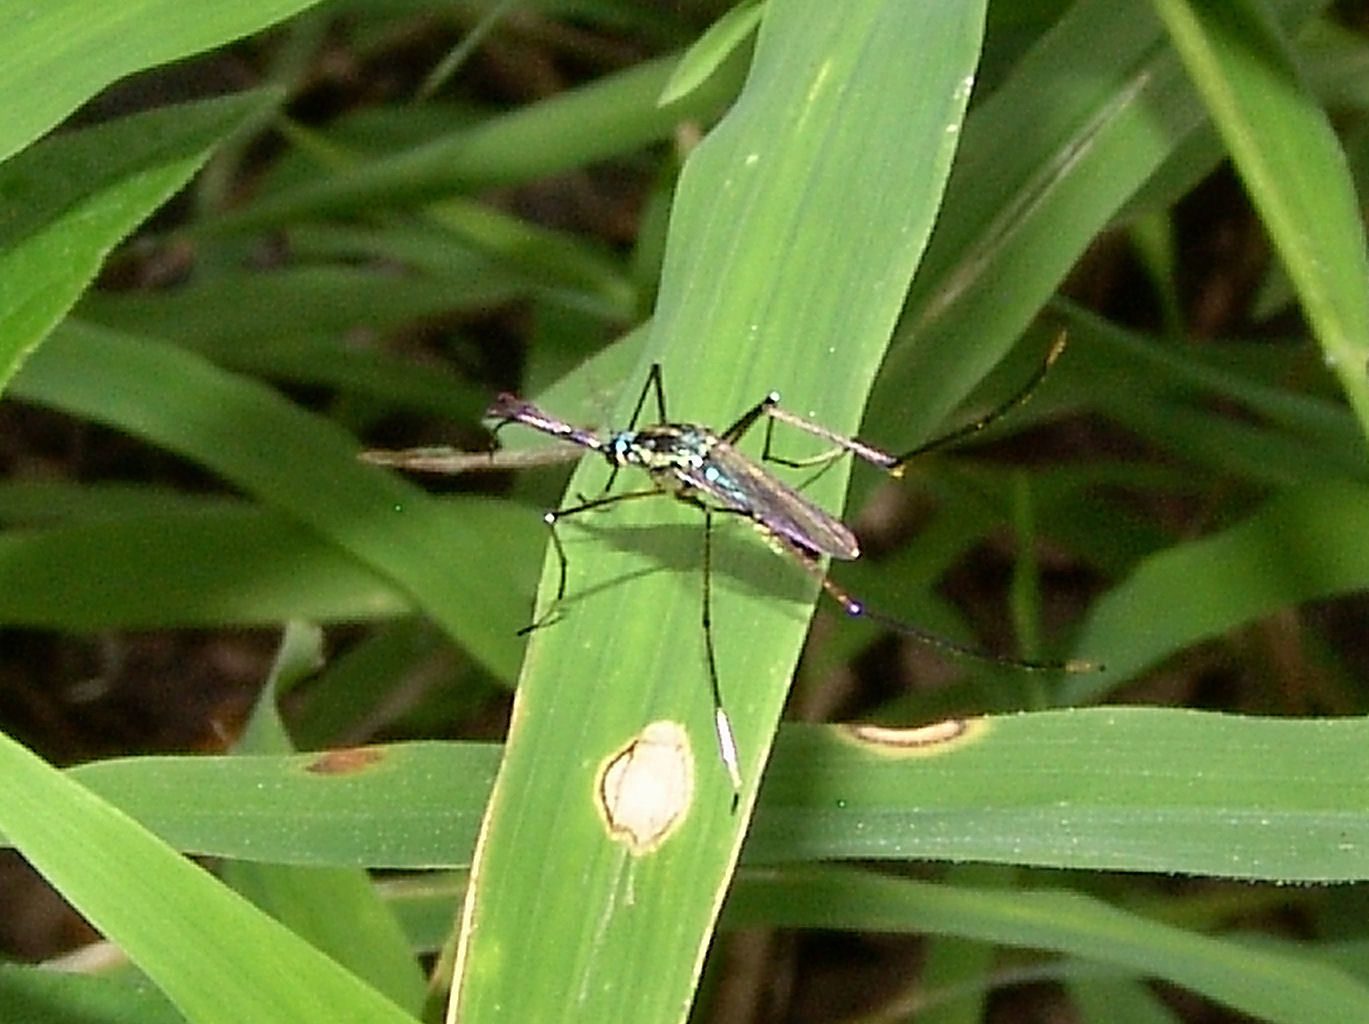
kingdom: Animalia
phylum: Arthropoda
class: Insecta
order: Diptera
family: Culicidae
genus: Toxorhynchites
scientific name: Toxorhynchites rutilus
